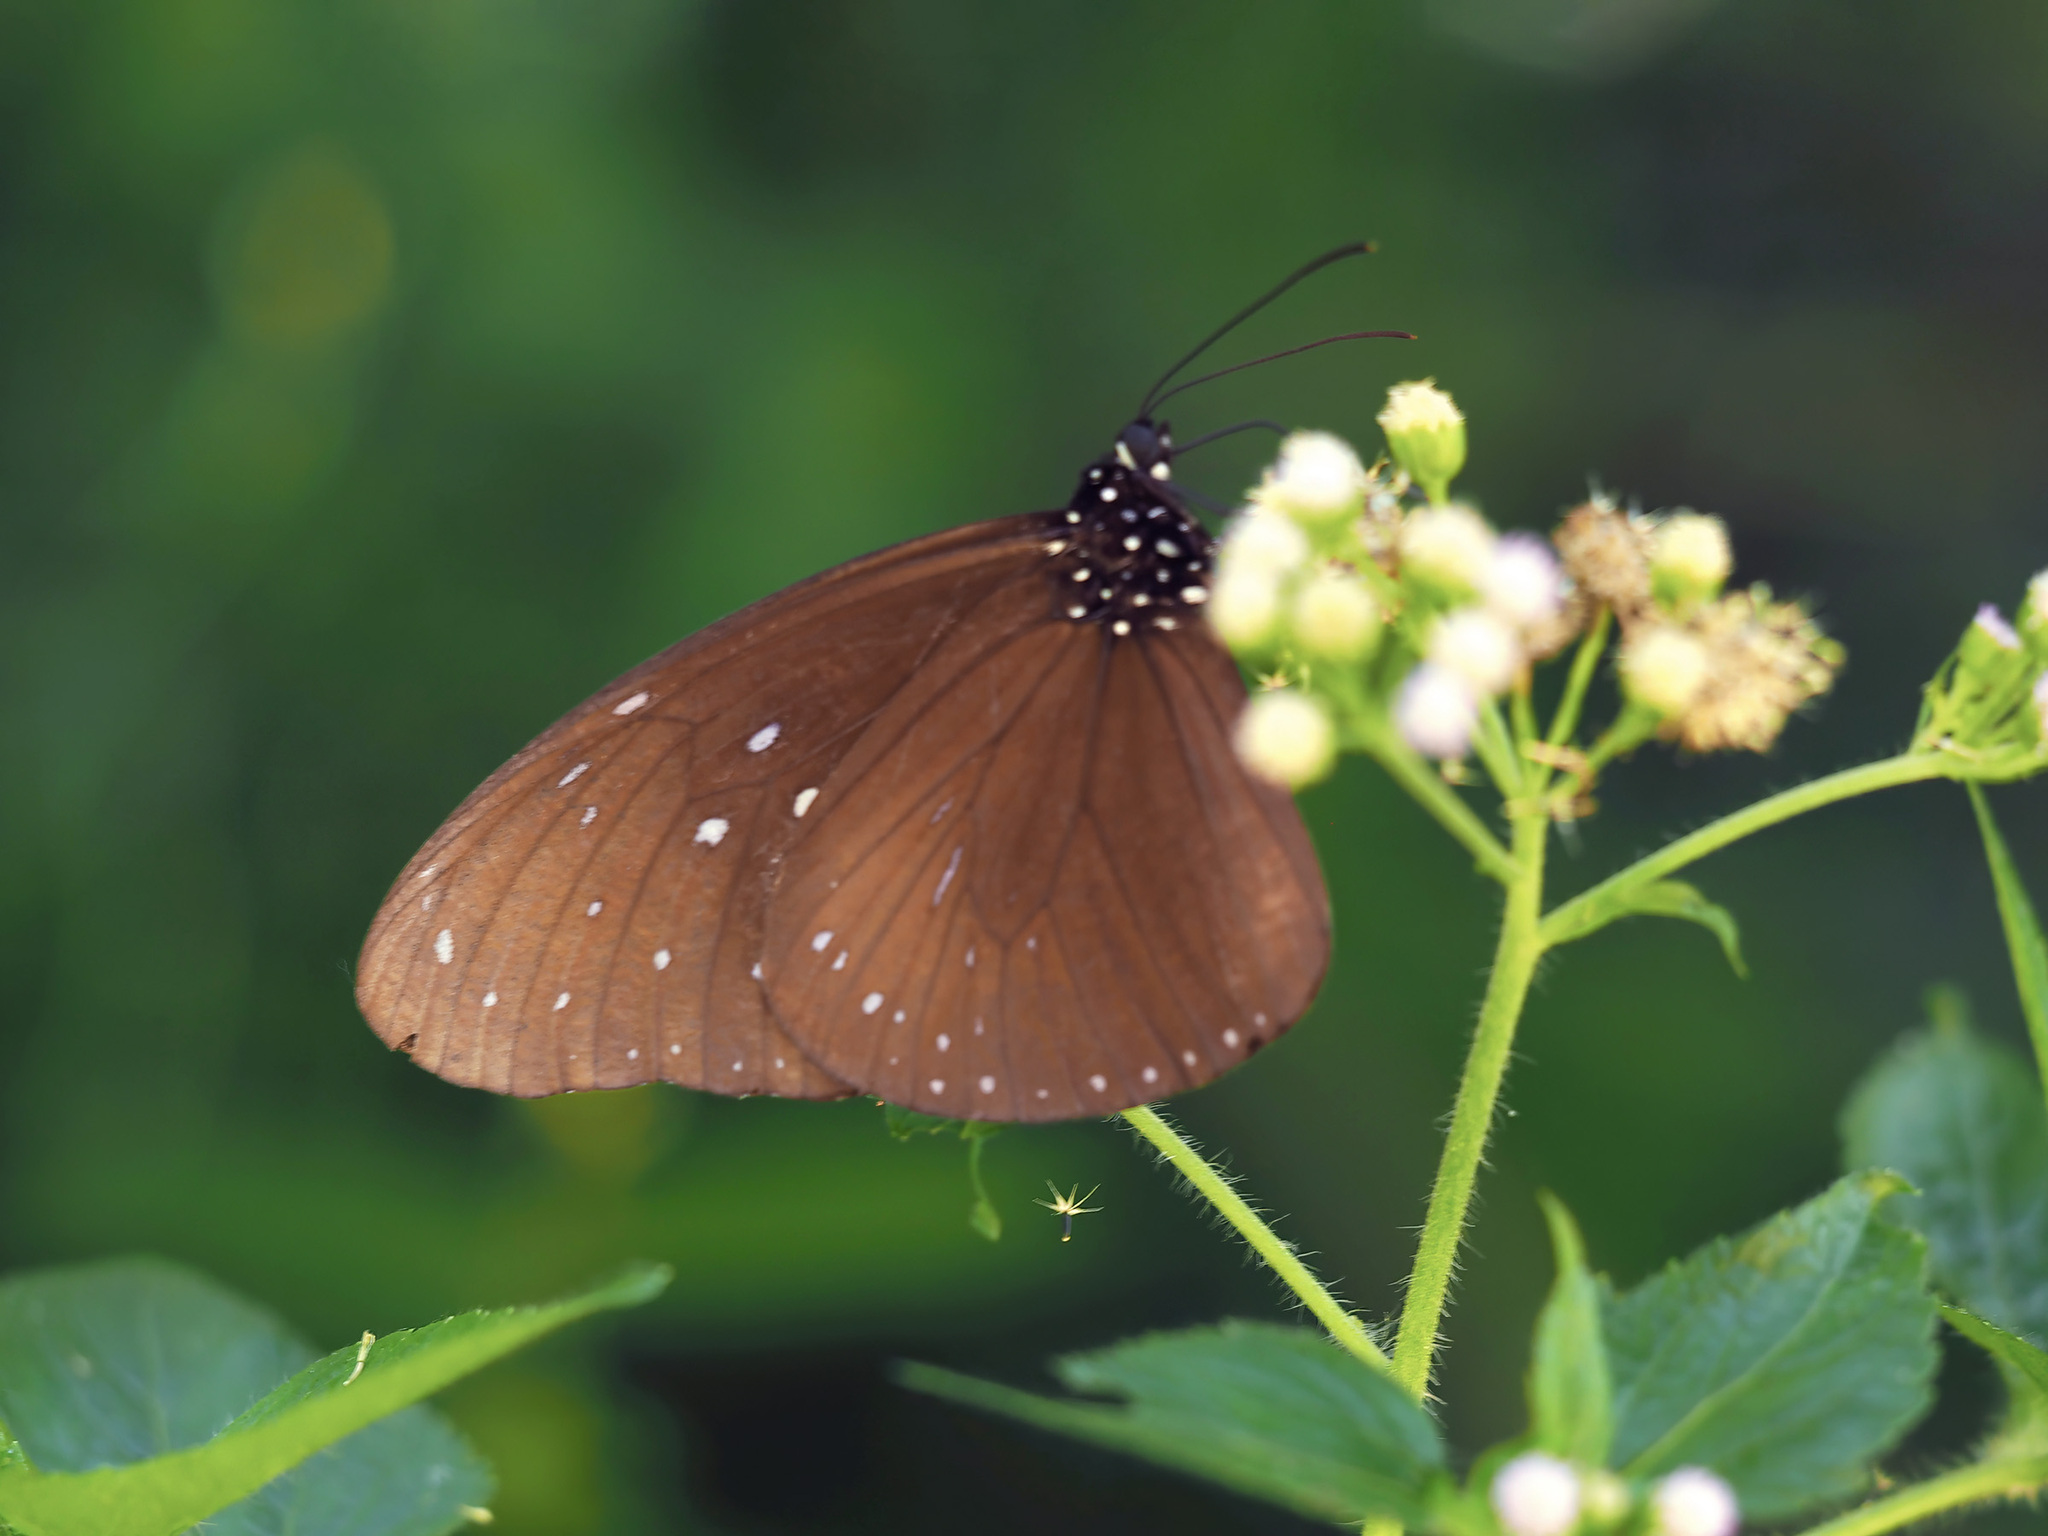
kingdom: Animalia
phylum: Arthropoda
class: Insecta
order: Lepidoptera
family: Nymphalidae
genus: Euploea
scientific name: Euploea mulciber
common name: Striped blue crow butterfly
